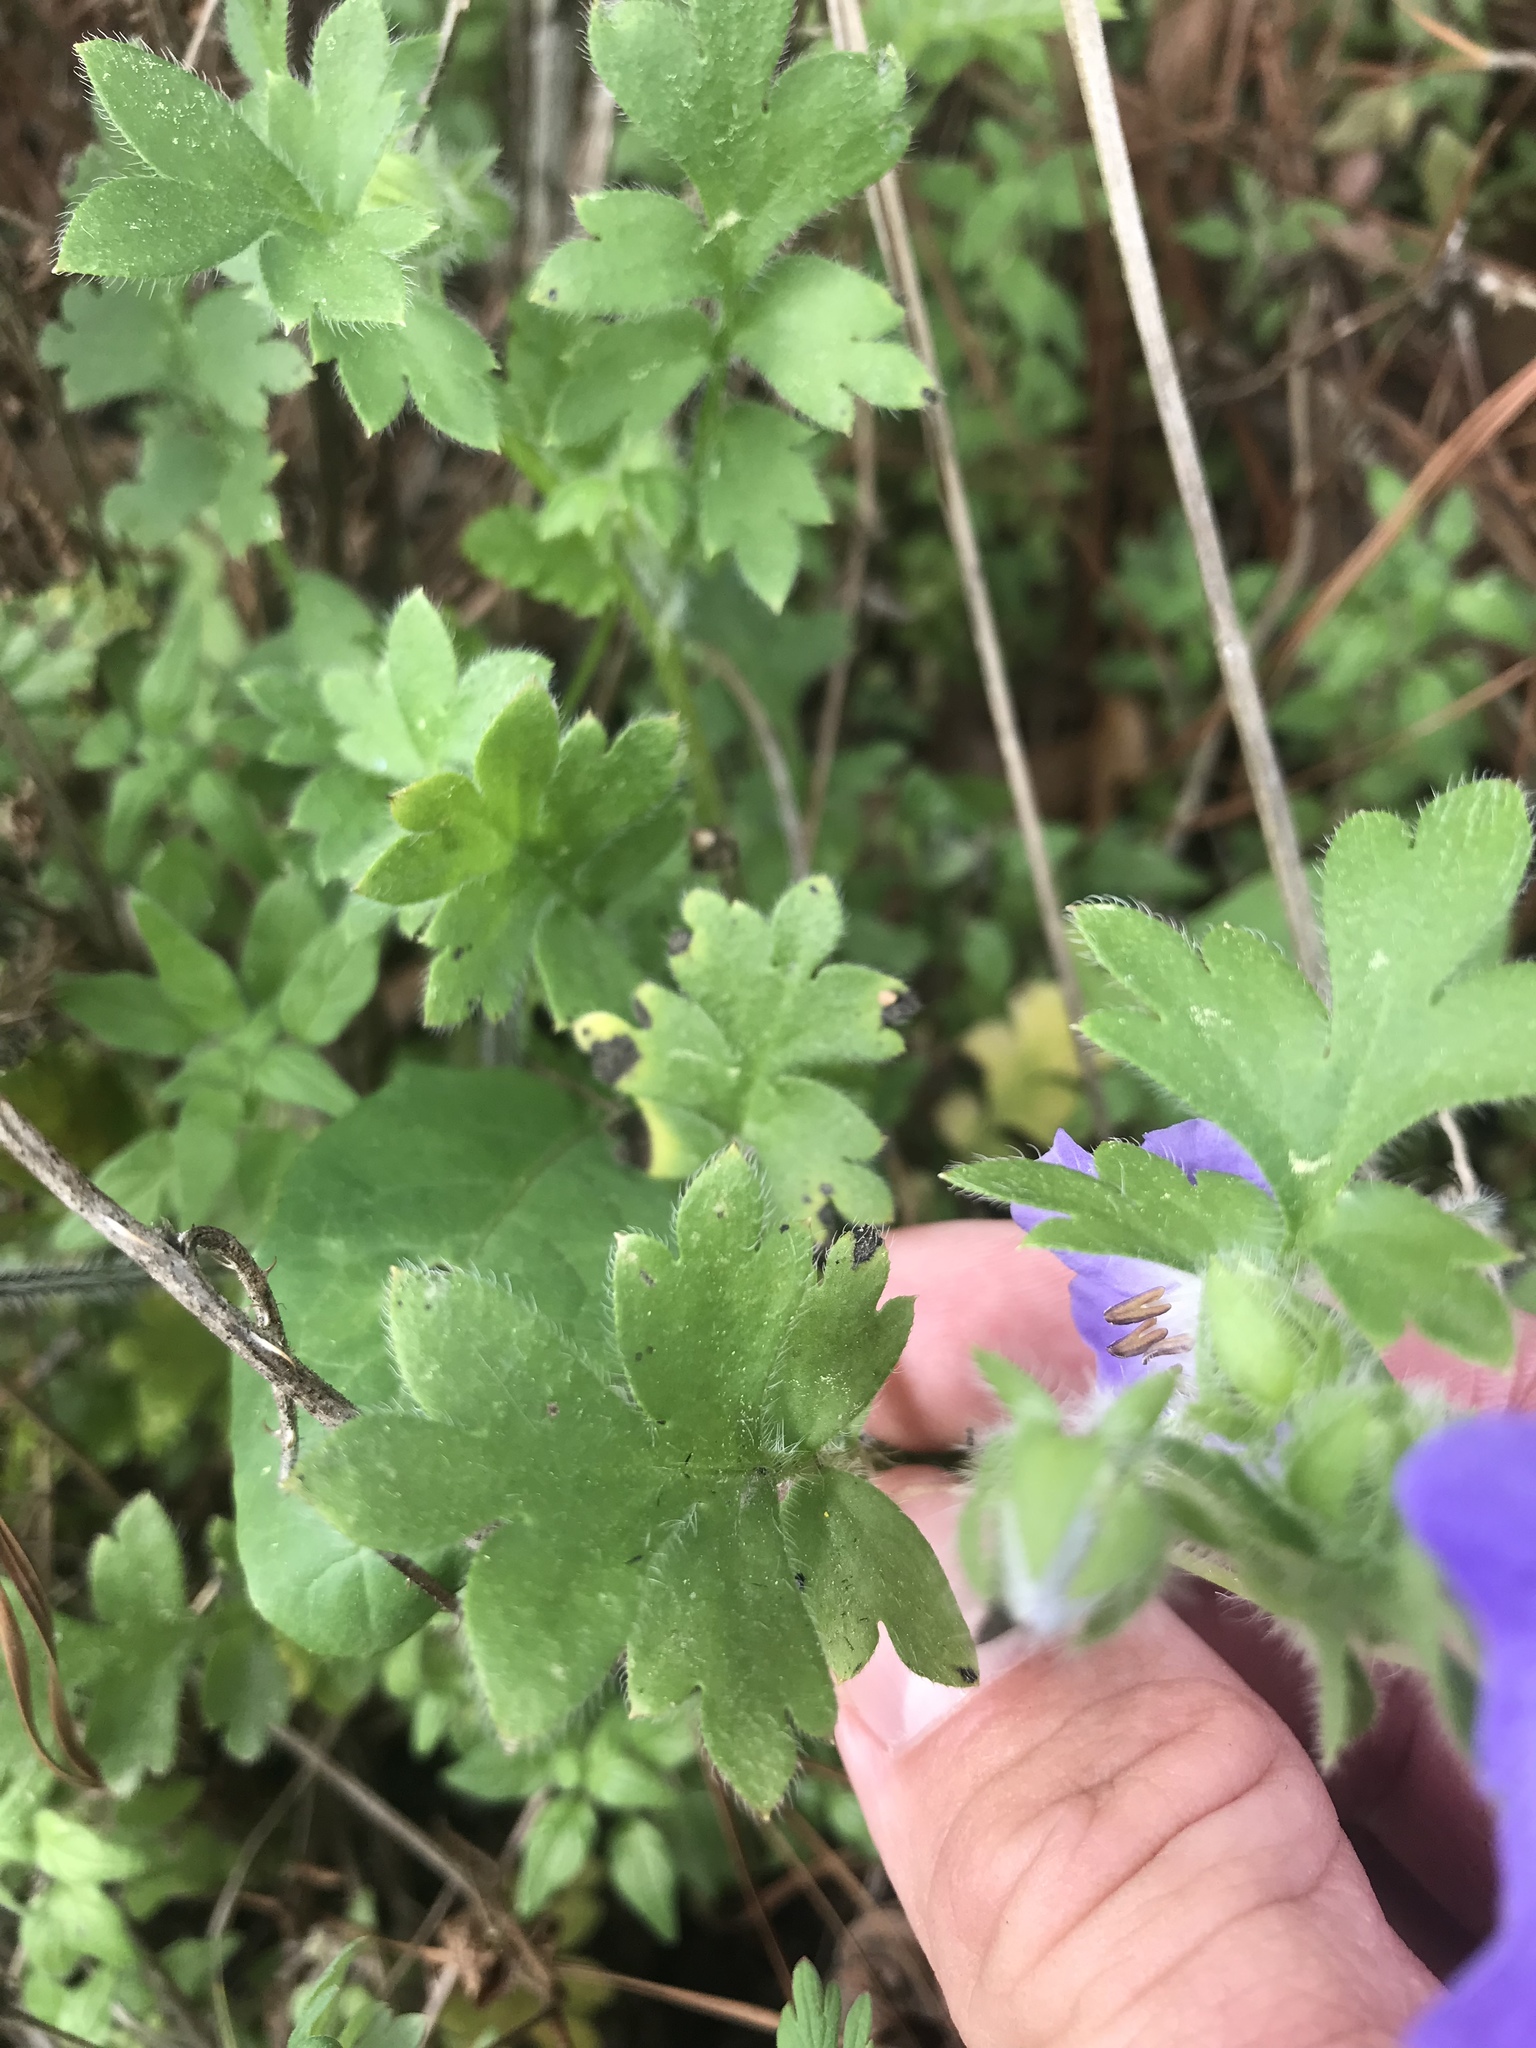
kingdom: Plantae
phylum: Tracheophyta
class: Magnoliopsida
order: Boraginales
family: Hydrophyllaceae
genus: Nemophila
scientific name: Nemophila phacelioides
